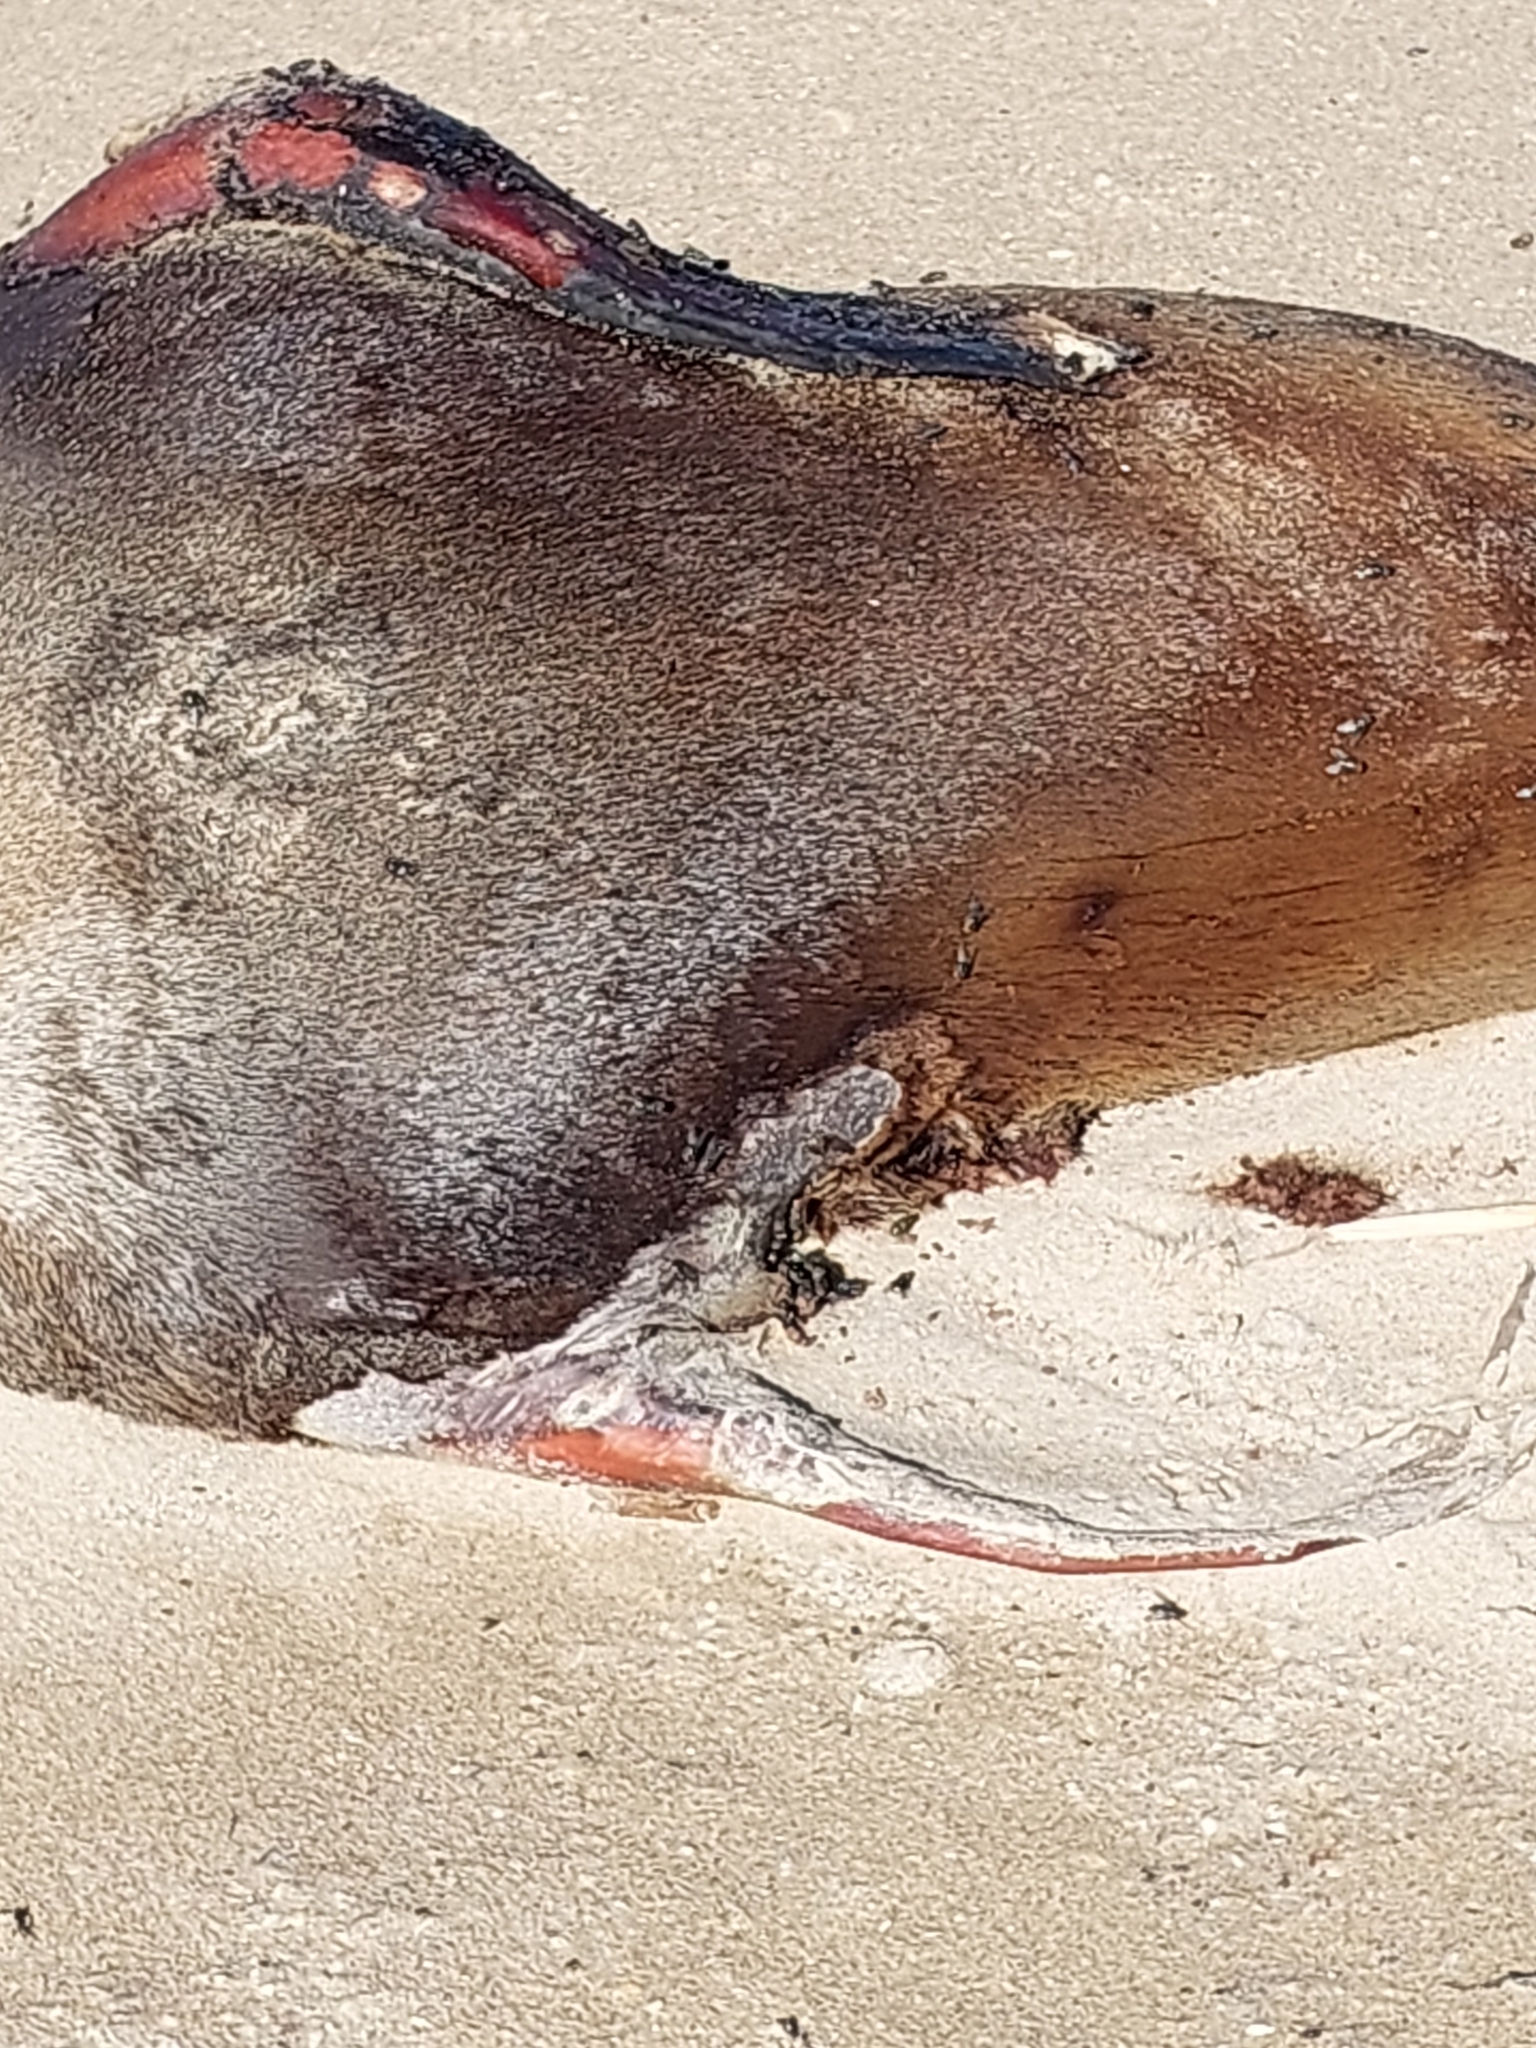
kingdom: Animalia
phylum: Chordata
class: Mammalia
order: Carnivora
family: Otariidae
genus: Arctocephalus
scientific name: Arctocephalus pusillus
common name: Brown fur seal
